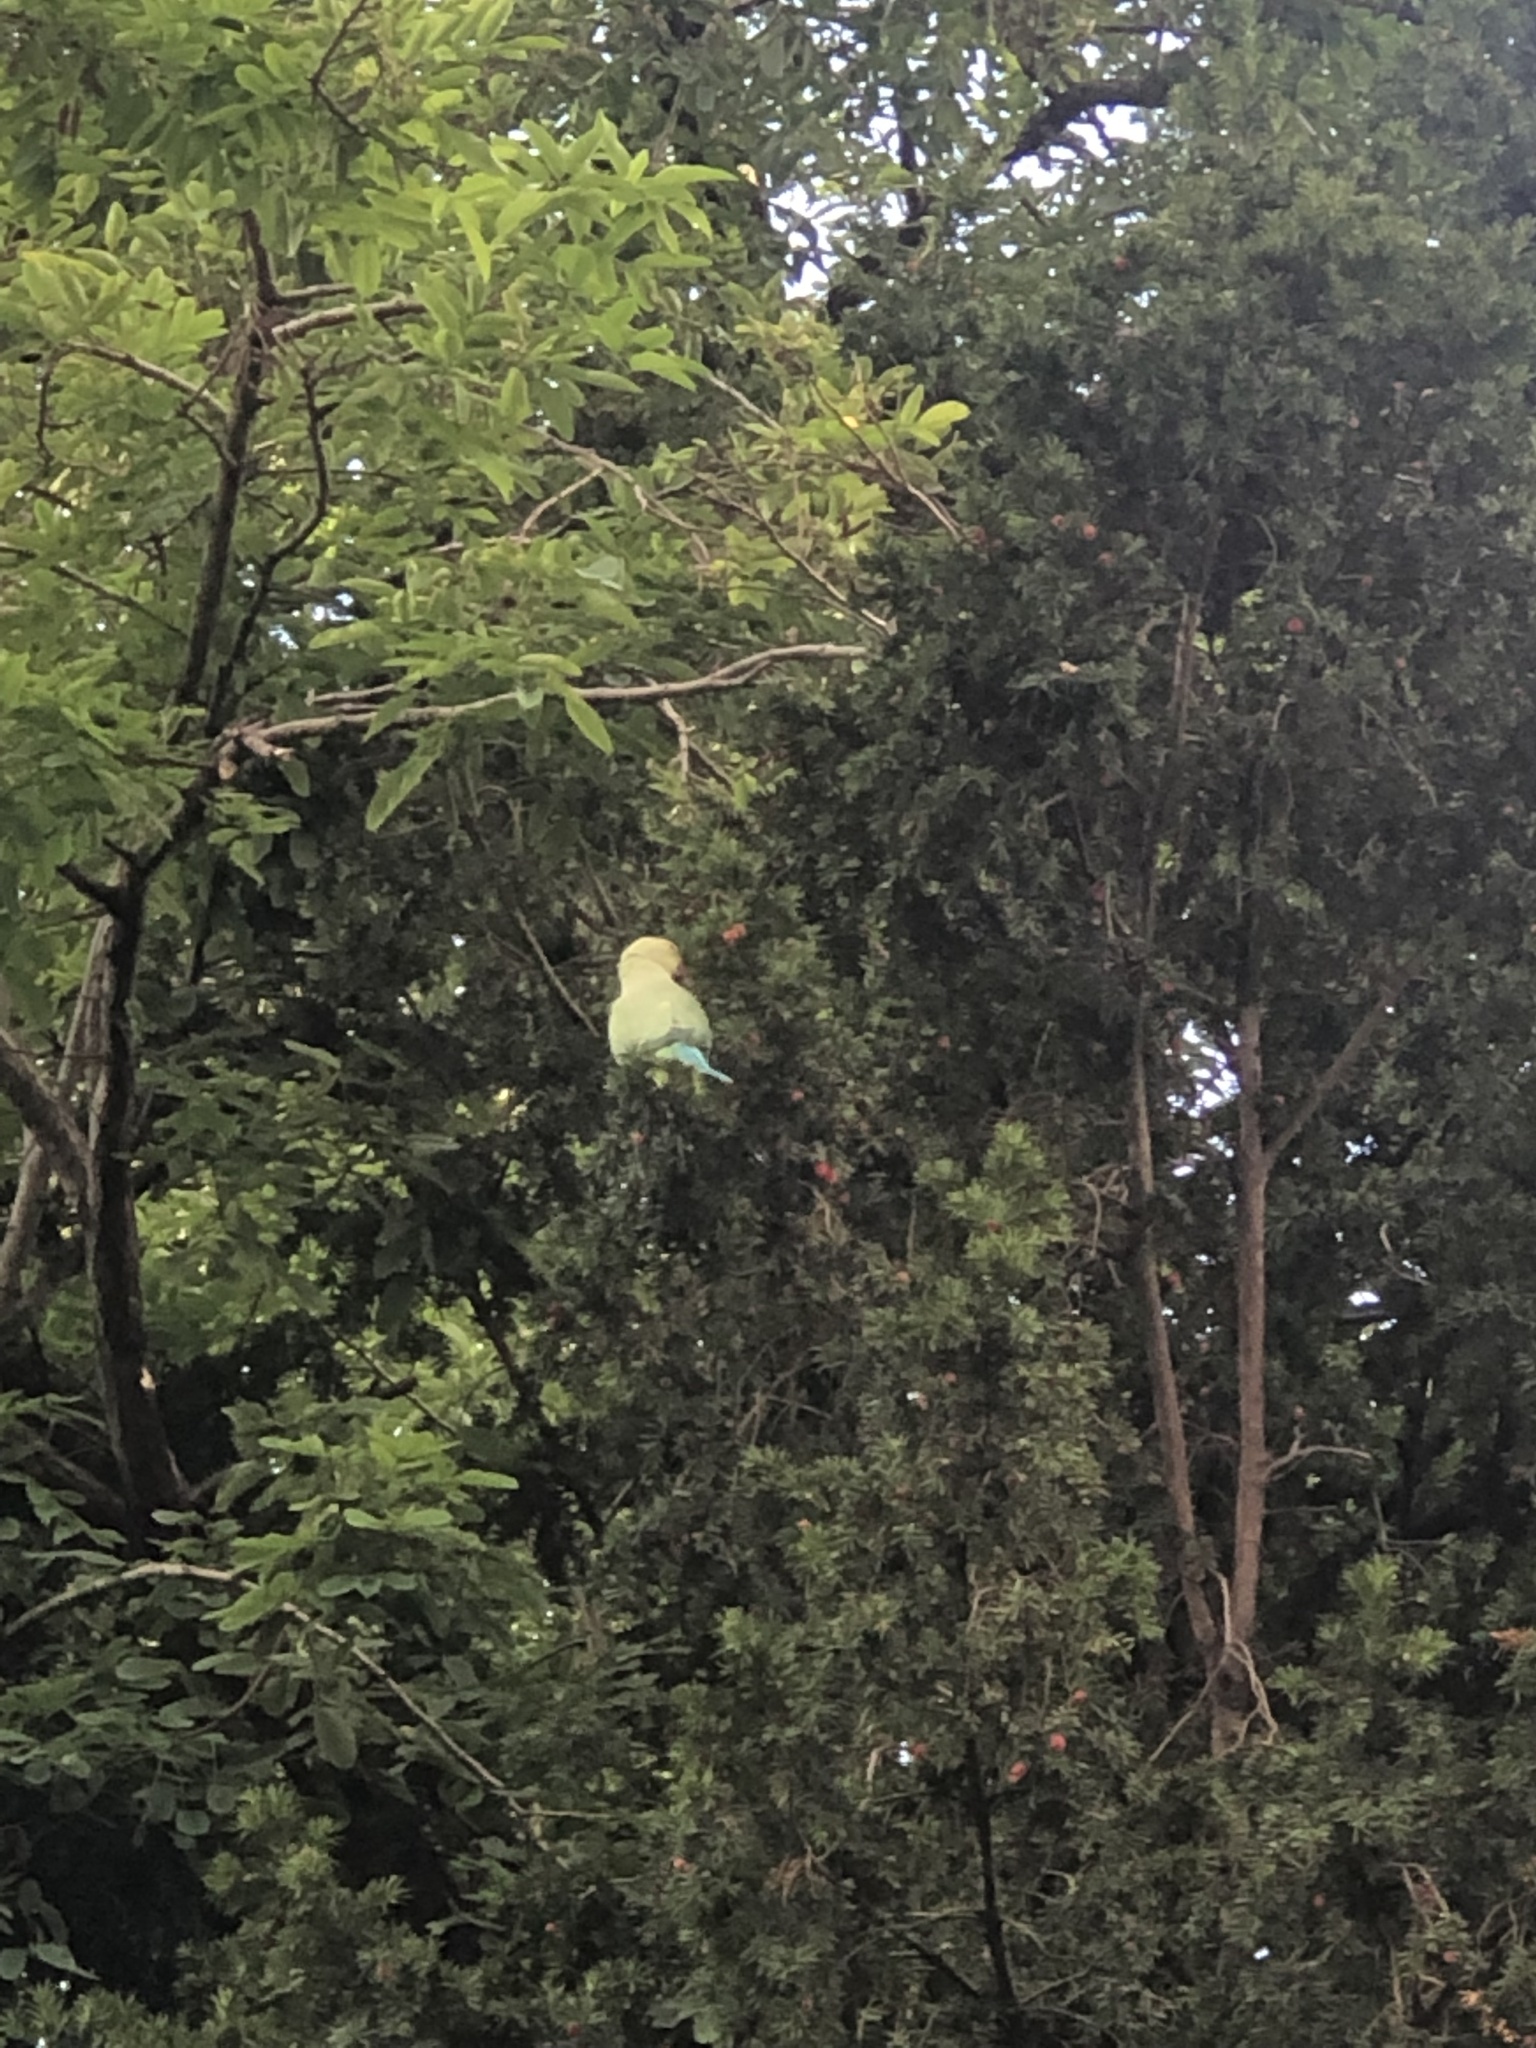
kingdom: Animalia
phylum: Chordata
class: Aves
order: Psittaciformes
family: Psittacidae
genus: Psittacula
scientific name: Psittacula krameri
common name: Rose-ringed parakeet
